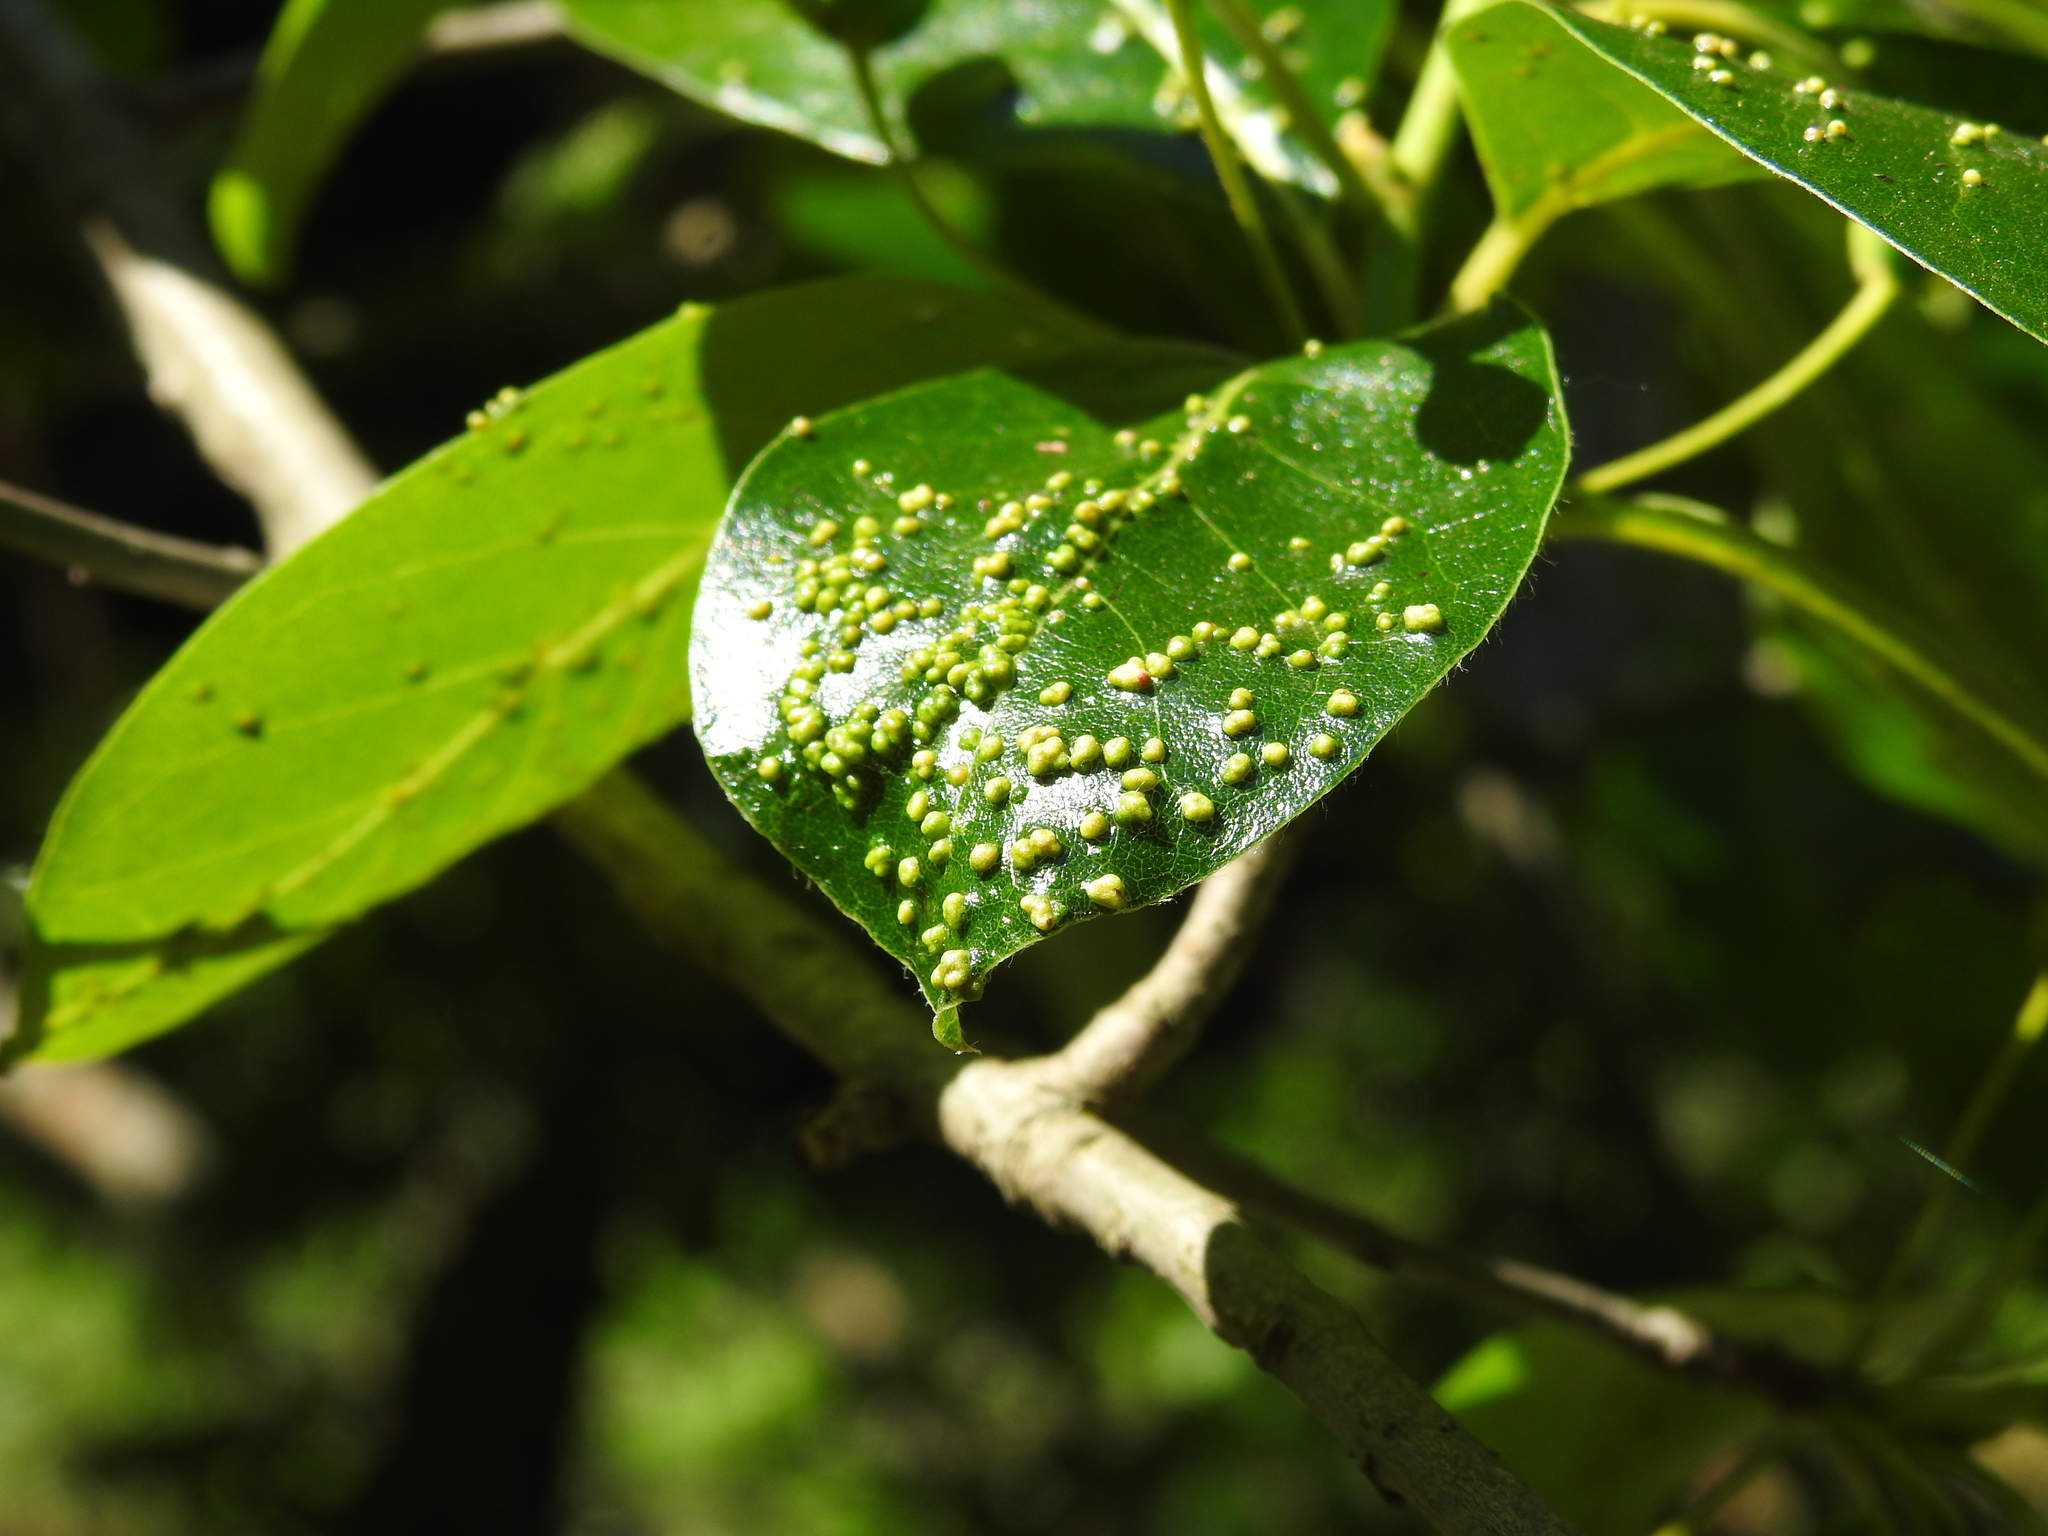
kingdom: Animalia
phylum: Arthropoda
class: Arachnida
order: Trombidiformes
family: Eriophyidae
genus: Aceria
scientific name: Aceria
